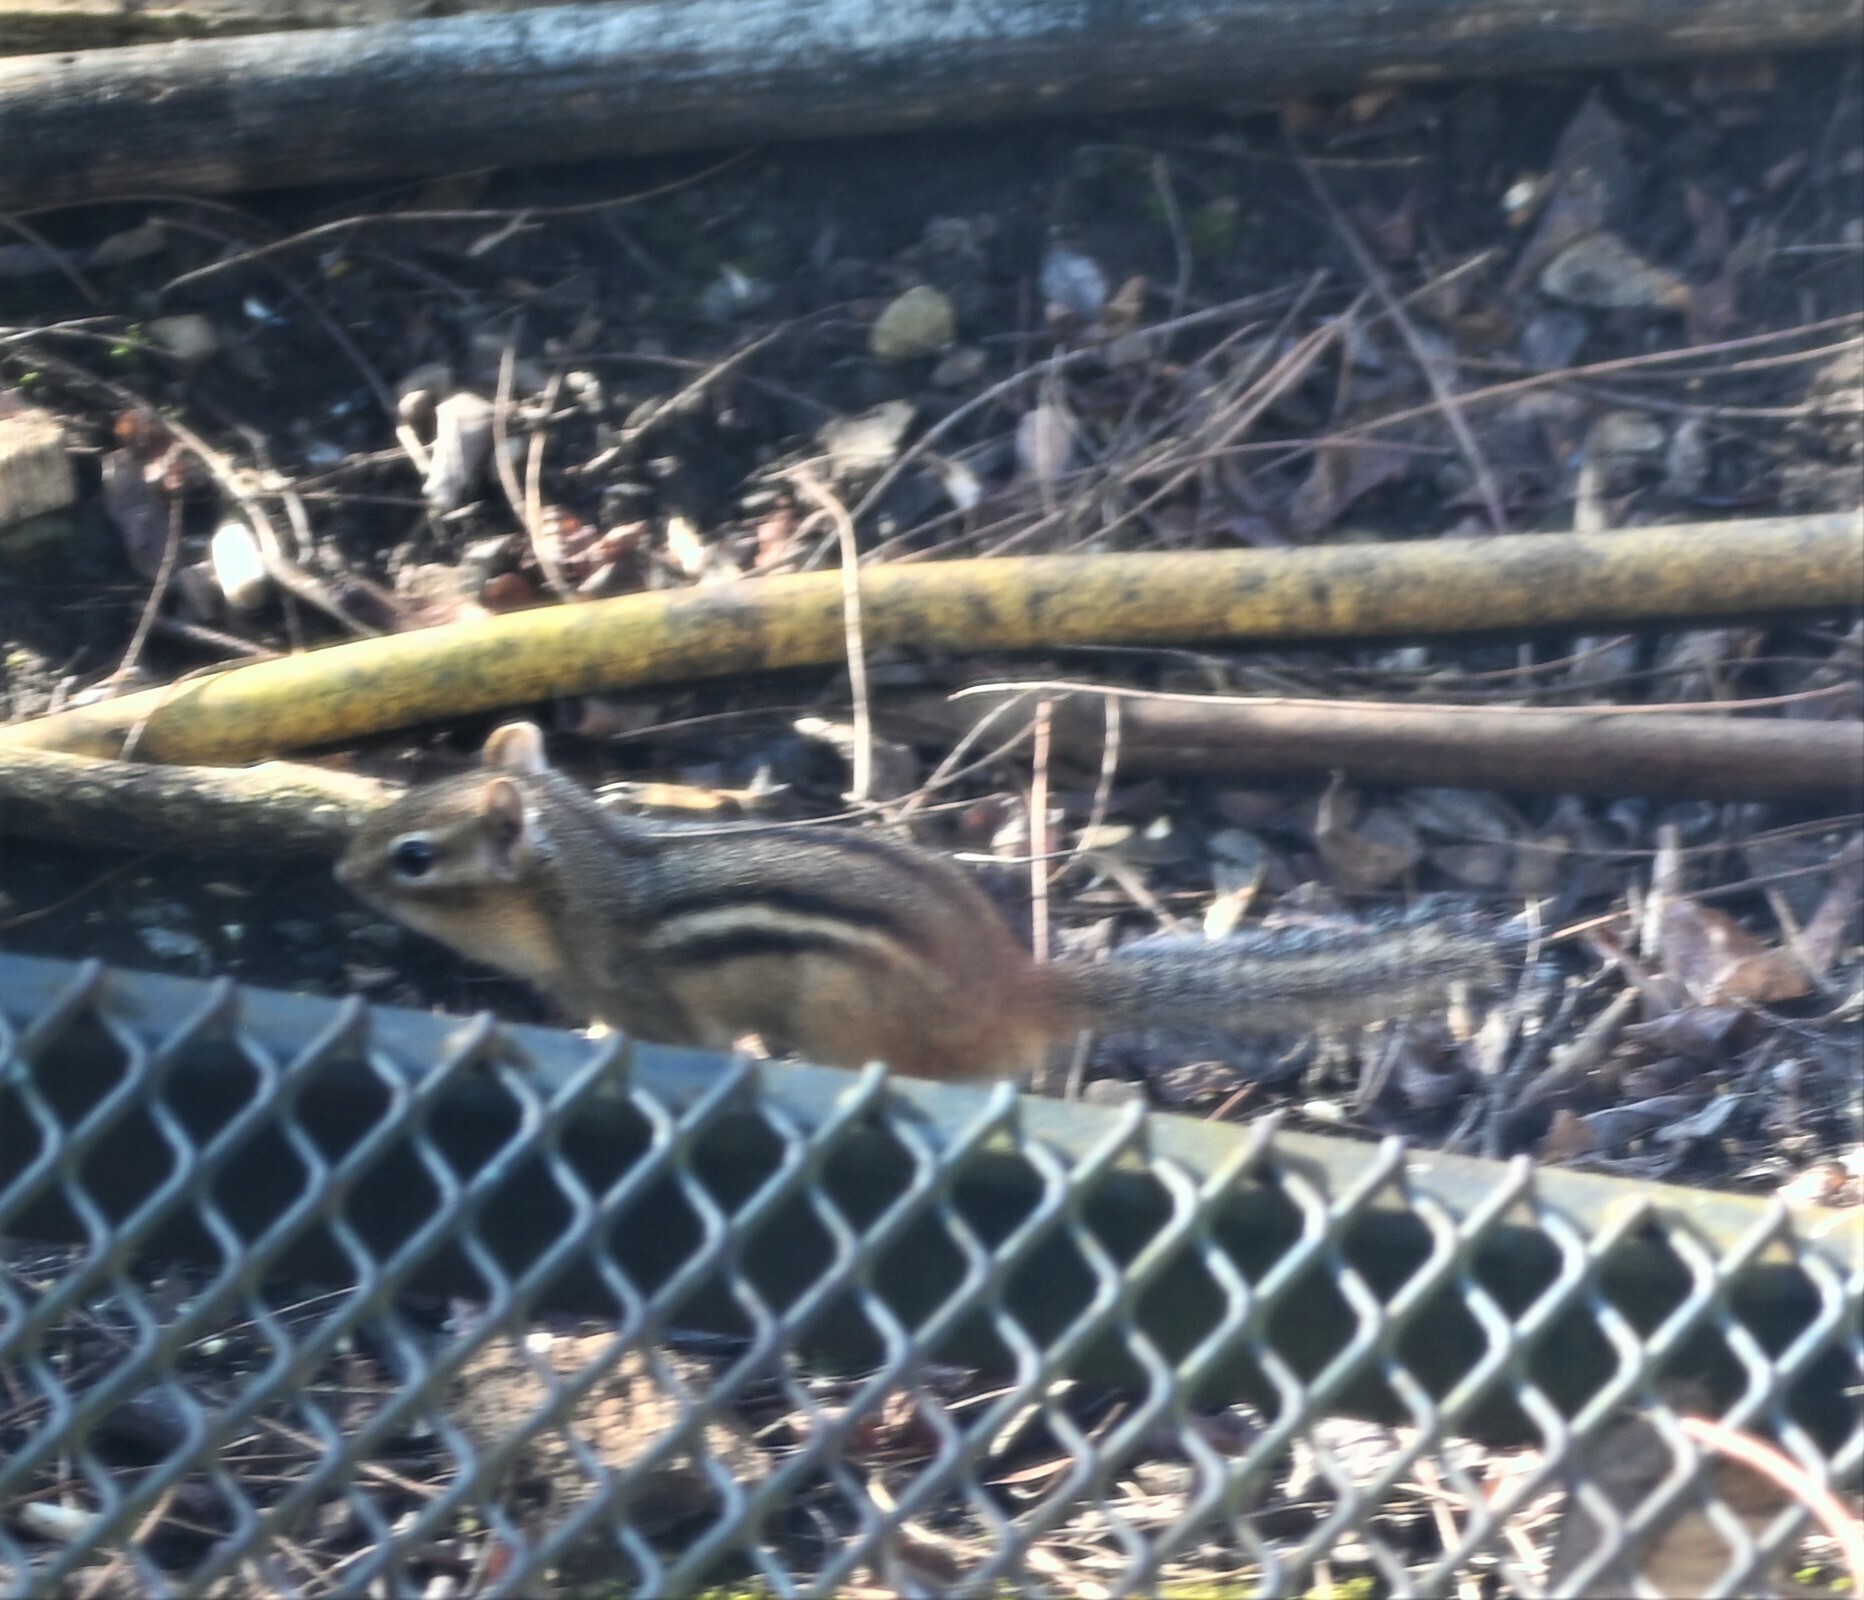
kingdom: Animalia
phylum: Chordata
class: Mammalia
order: Rodentia
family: Sciuridae
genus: Tamias
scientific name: Tamias striatus
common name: Eastern chipmunk
